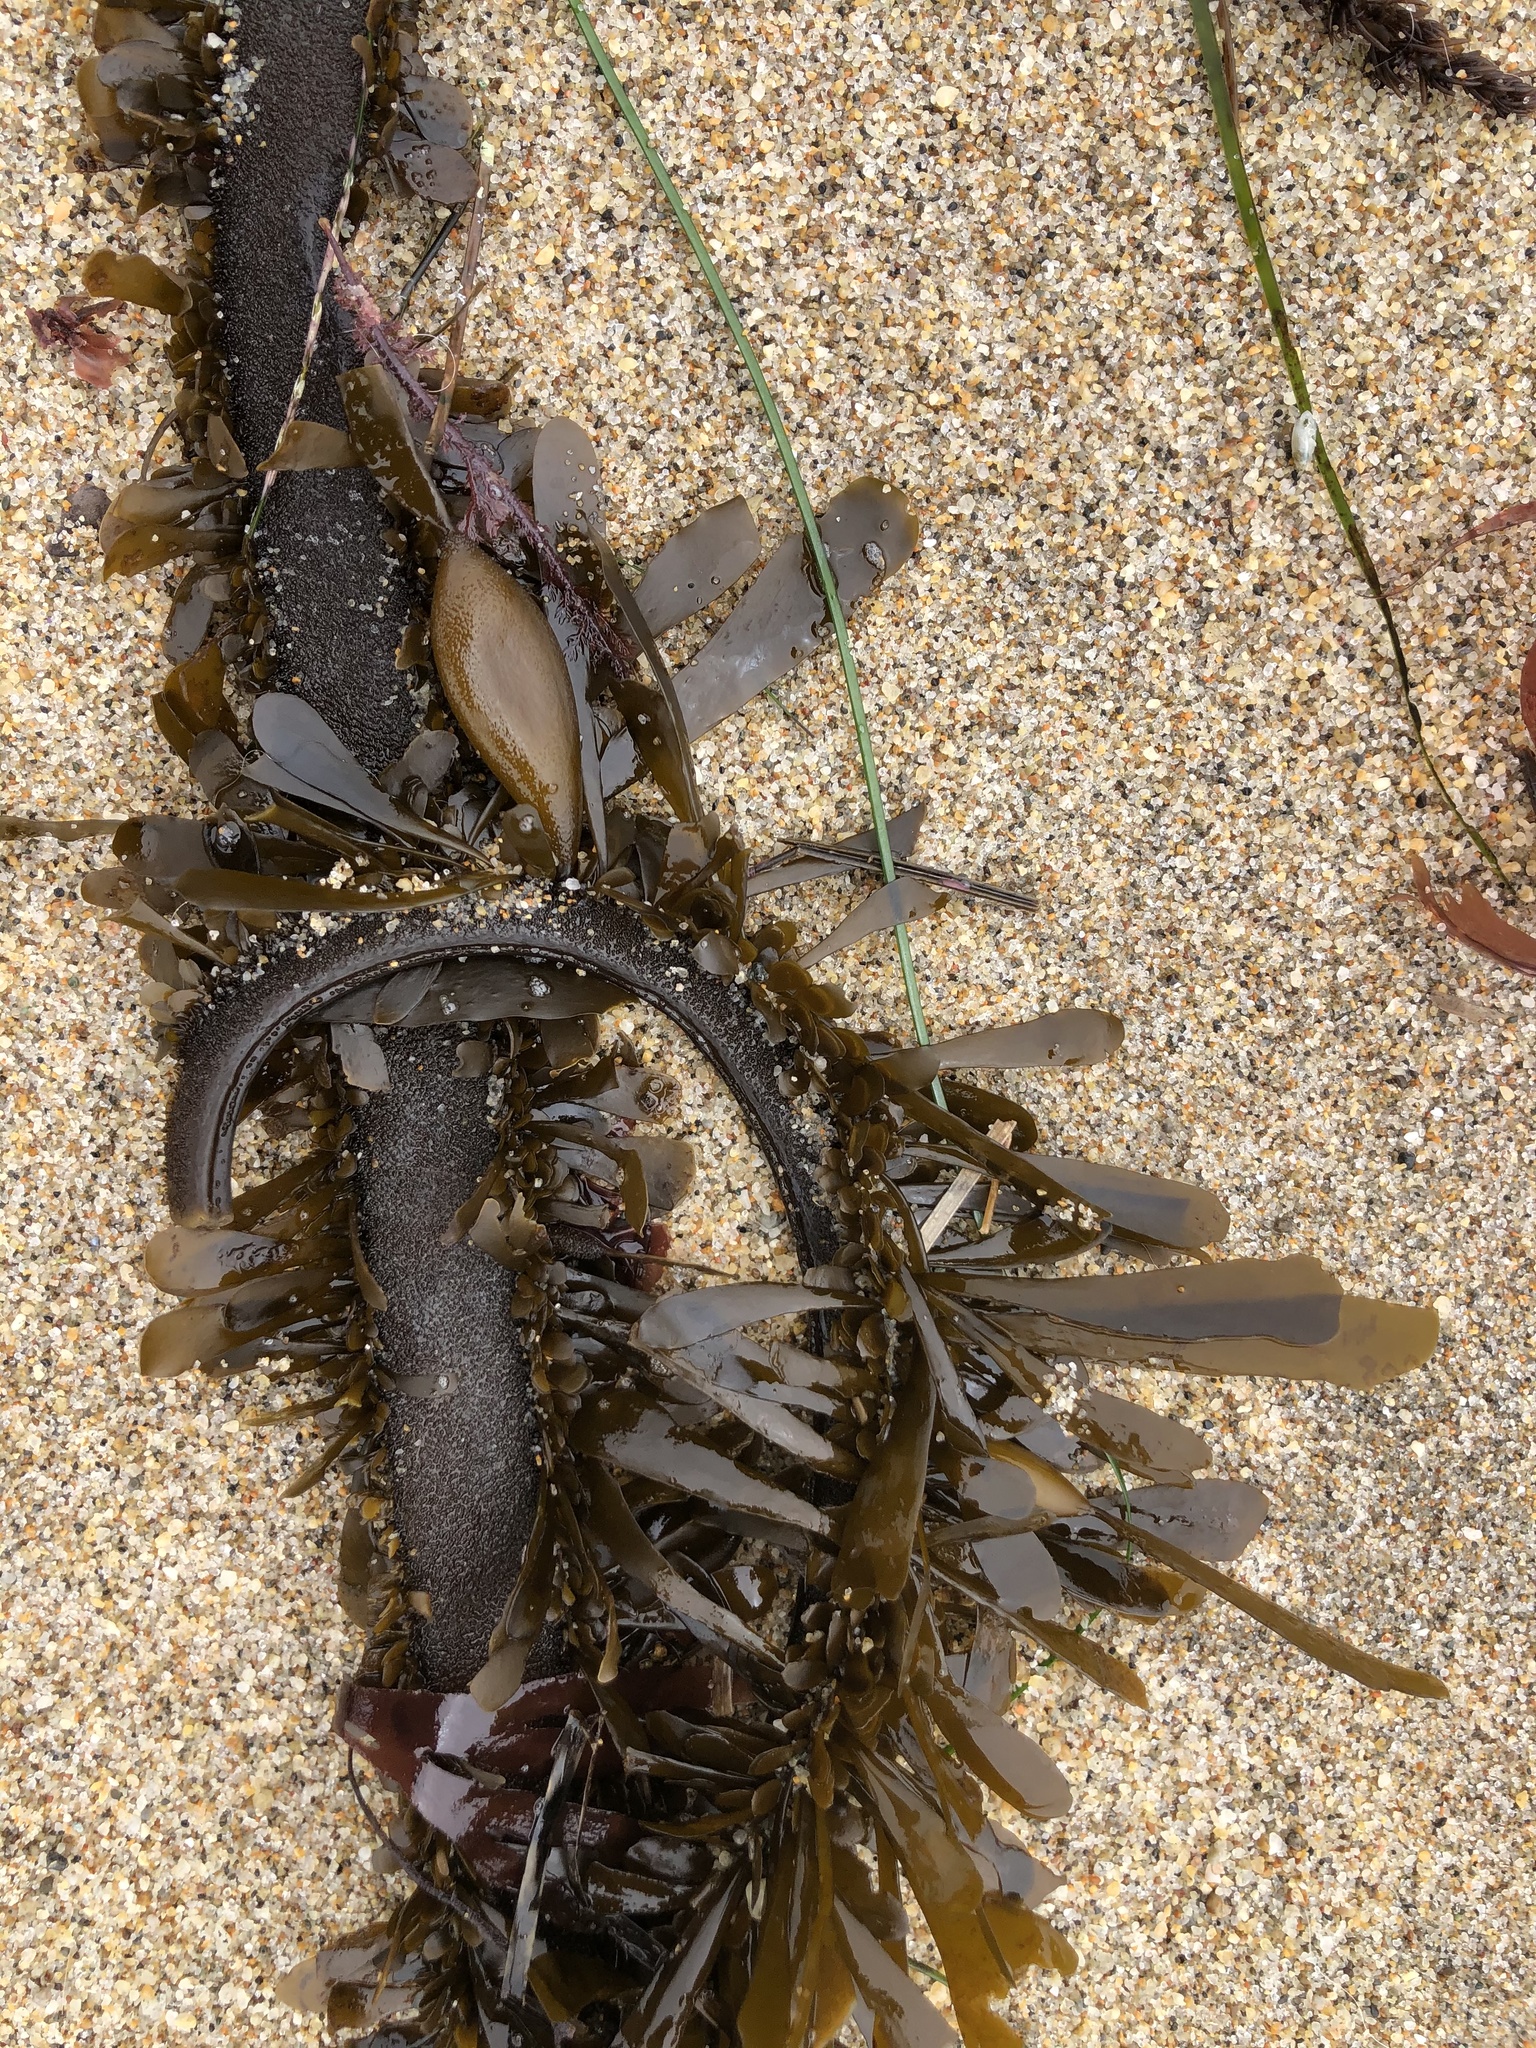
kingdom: Chromista
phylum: Ochrophyta
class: Phaeophyceae
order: Laminariales
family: Lessoniaceae
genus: Egregia
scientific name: Egregia menziesii
